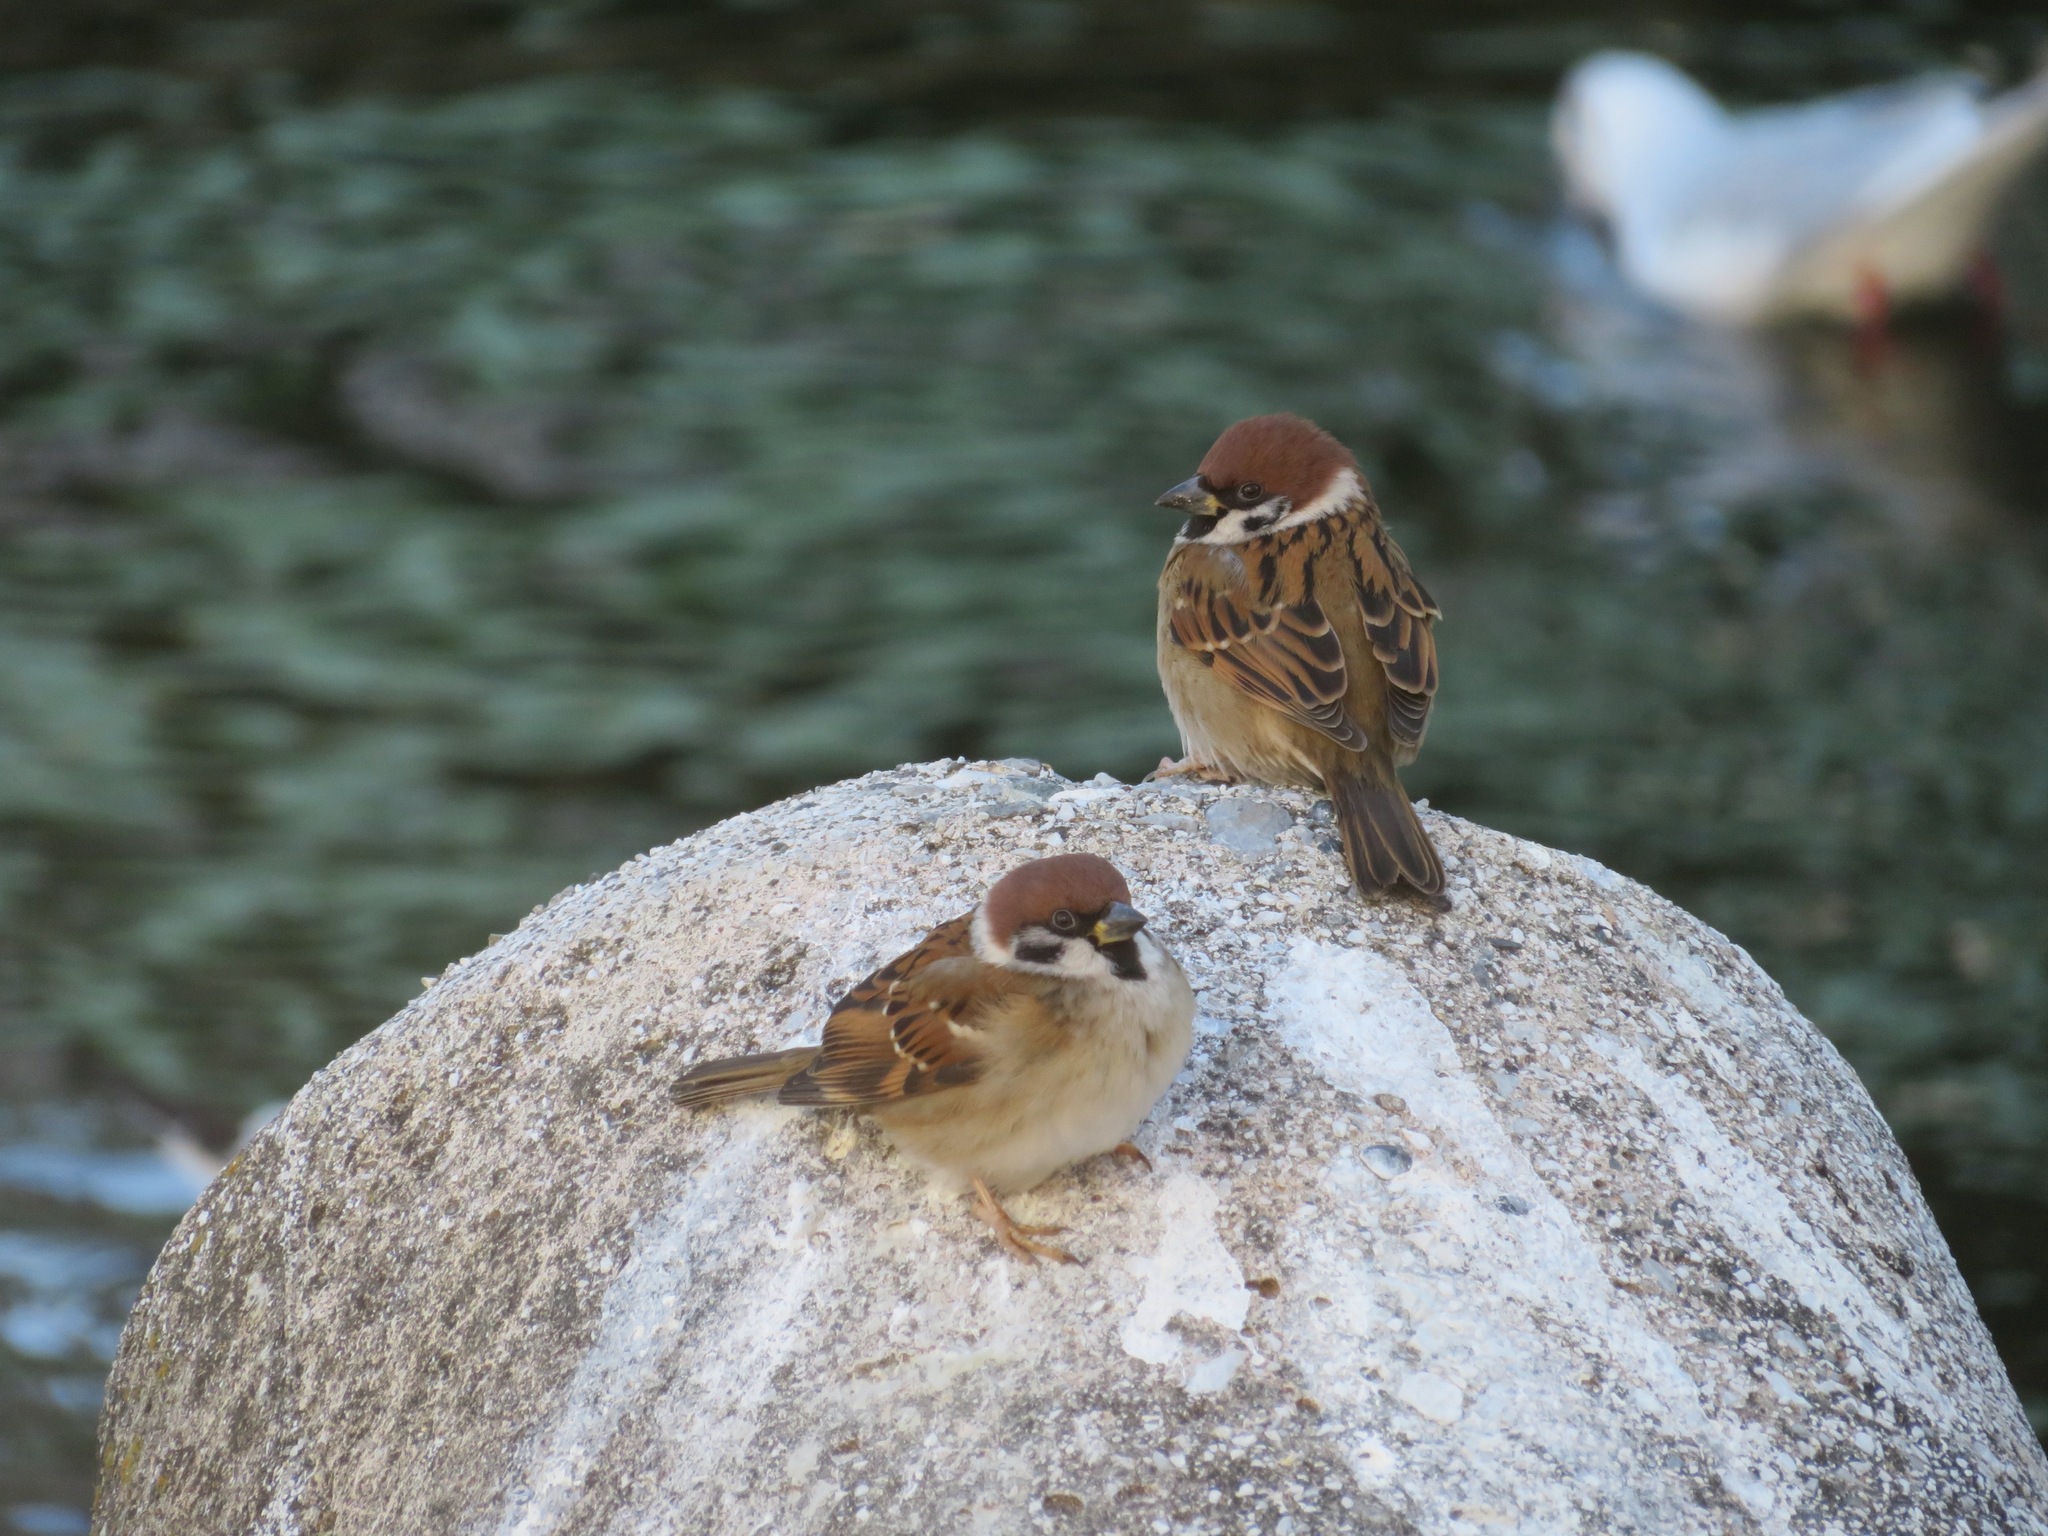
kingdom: Animalia
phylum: Chordata
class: Aves
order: Passeriformes
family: Passeridae
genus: Passer
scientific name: Passer montanus
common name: Eurasian tree sparrow
